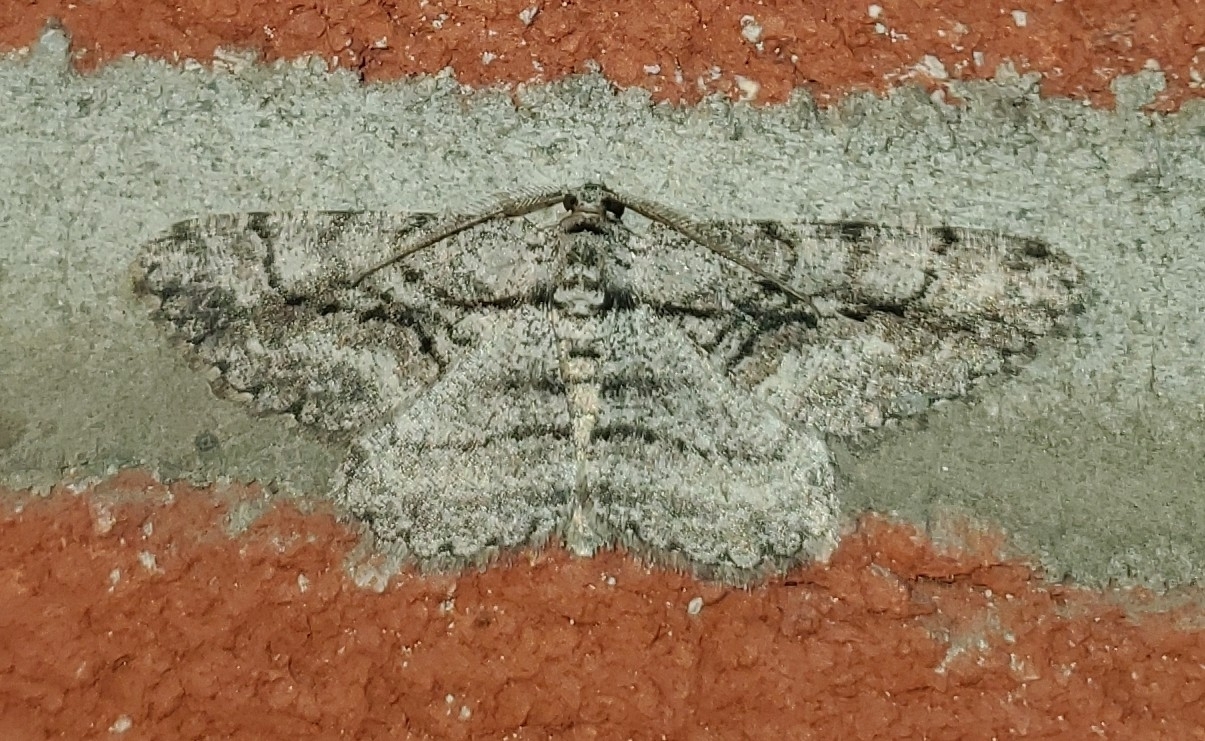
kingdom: Animalia
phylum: Arthropoda
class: Insecta
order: Lepidoptera
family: Geometridae
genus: Anavitrinella
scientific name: Anavitrinella pampinaria
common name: Common gray
